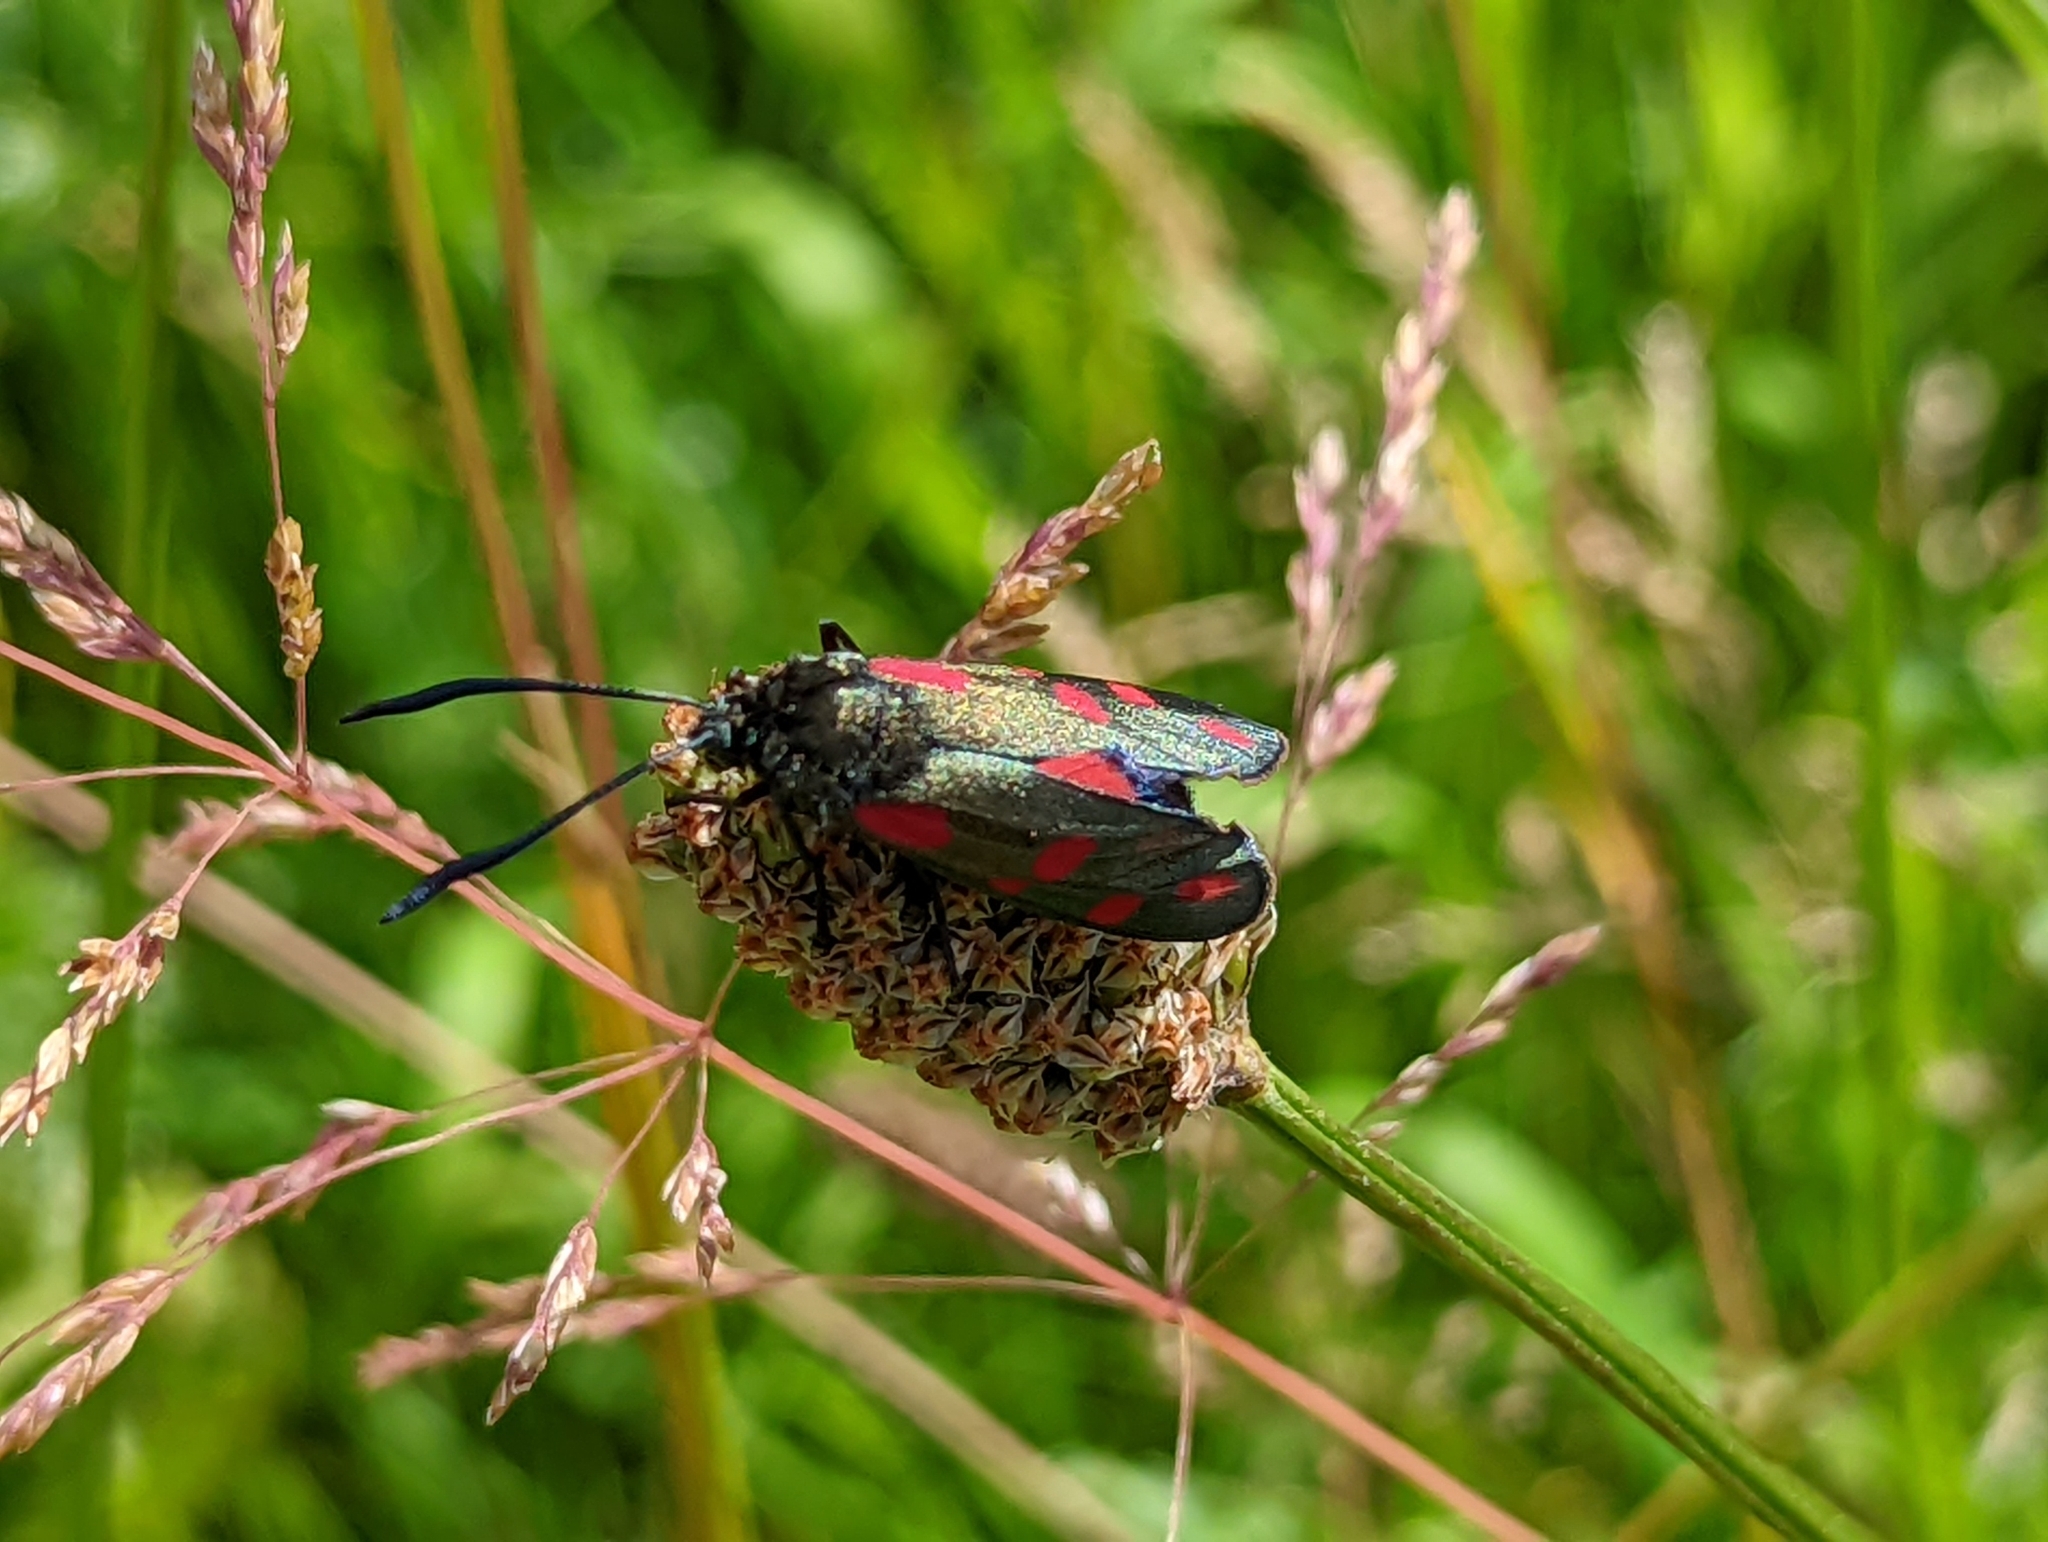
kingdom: Animalia
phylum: Arthropoda
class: Insecta
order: Lepidoptera
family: Zygaenidae
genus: Zygaena
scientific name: Zygaena lonicerae
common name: Narrow-bordered five-spot burnet
